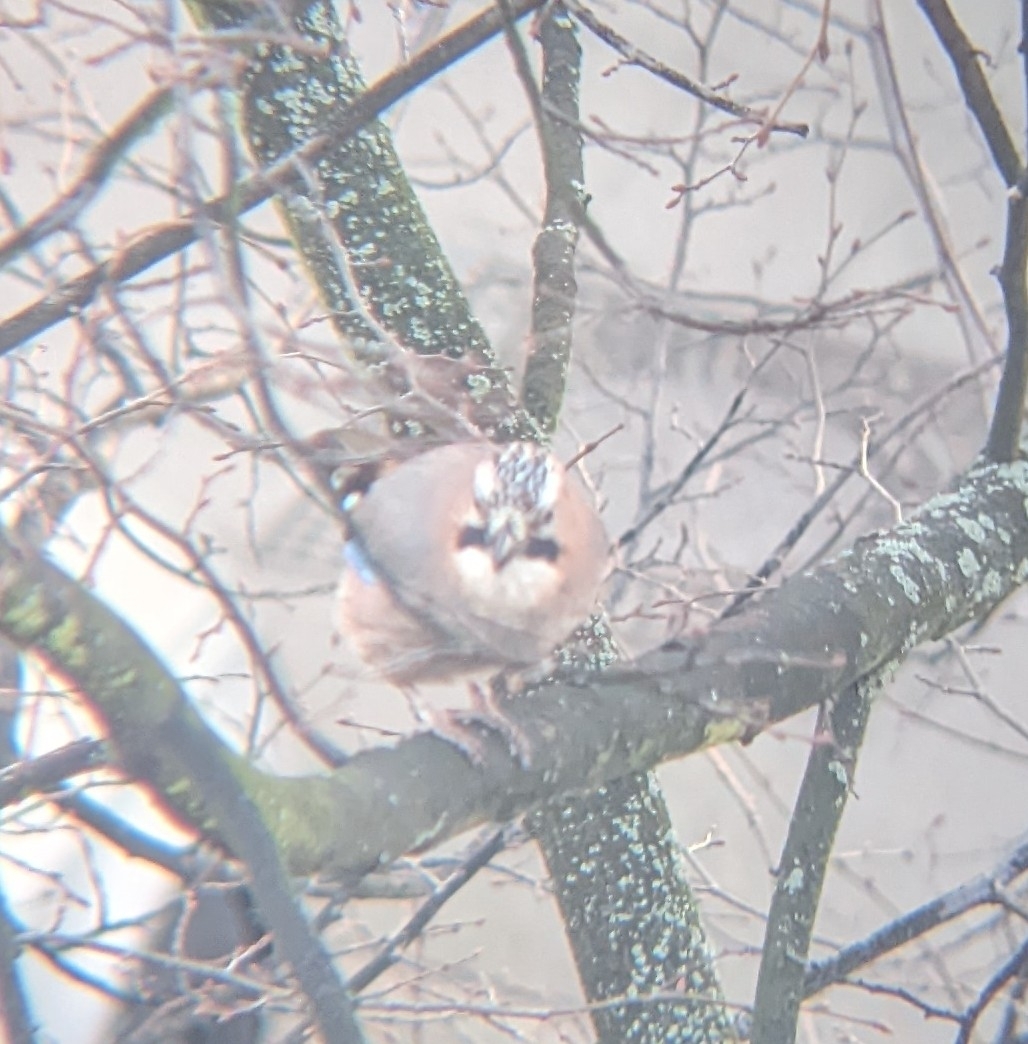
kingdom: Animalia
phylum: Chordata
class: Aves
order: Passeriformes
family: Corvidae
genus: Garrulus
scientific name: Garrulus glandarius
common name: Eurasian jay
